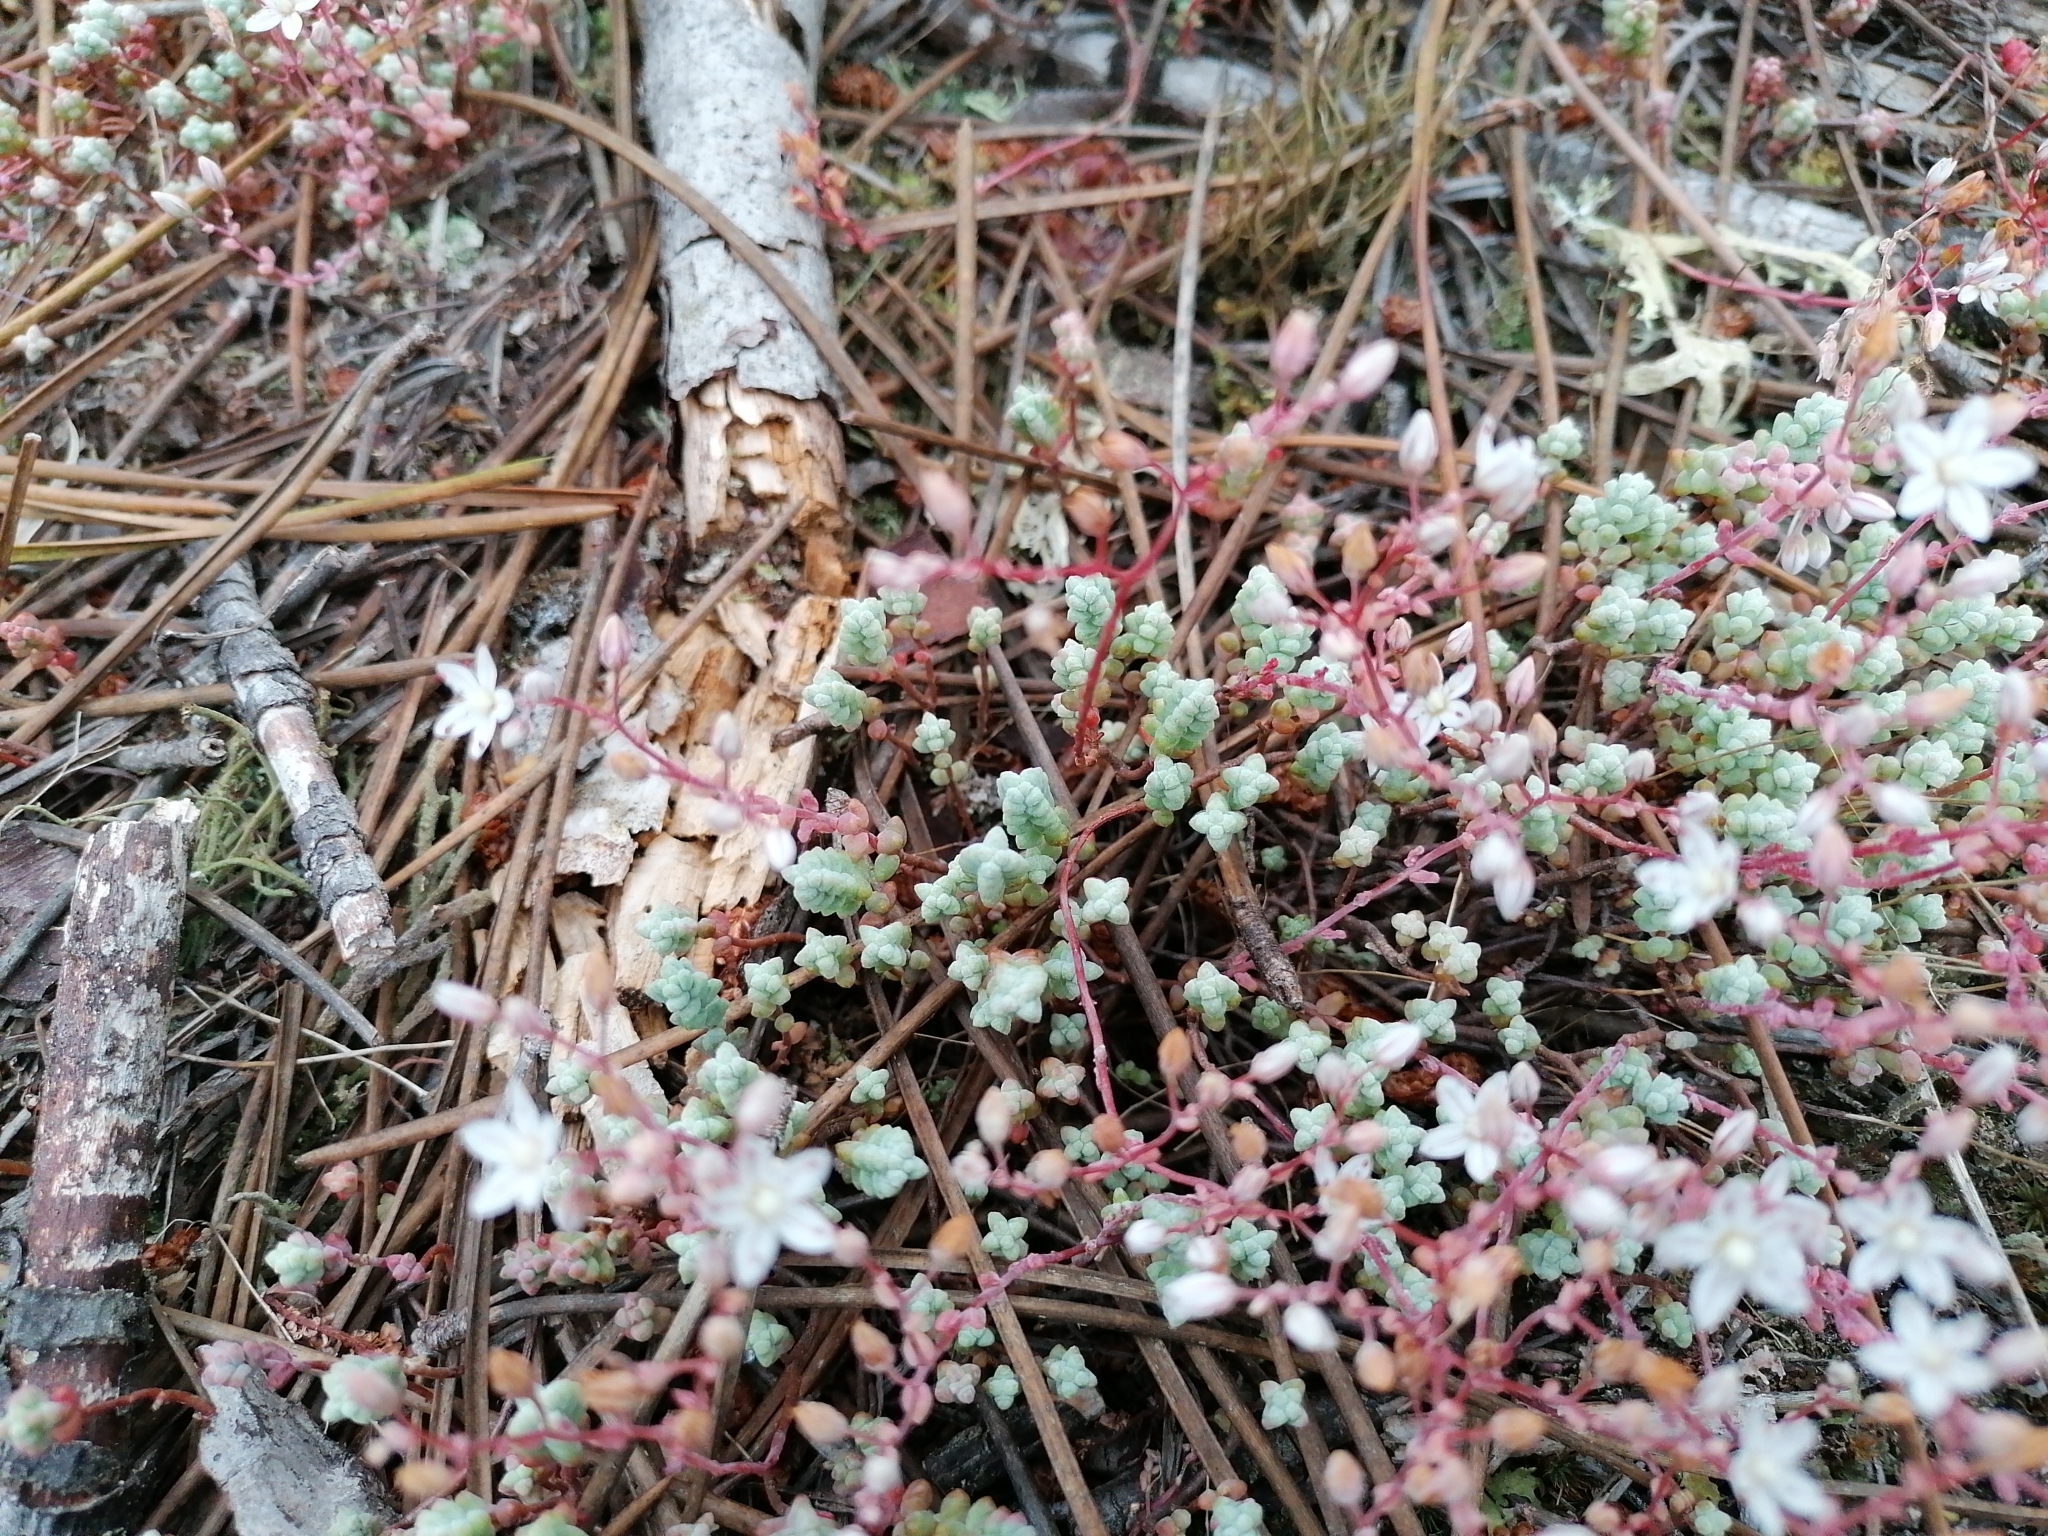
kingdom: Plantae
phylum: Tracheophyta
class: Magnoliopsida
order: Saxifragales
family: Crassulaceae
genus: Sedum
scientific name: Sedum brevifolium
